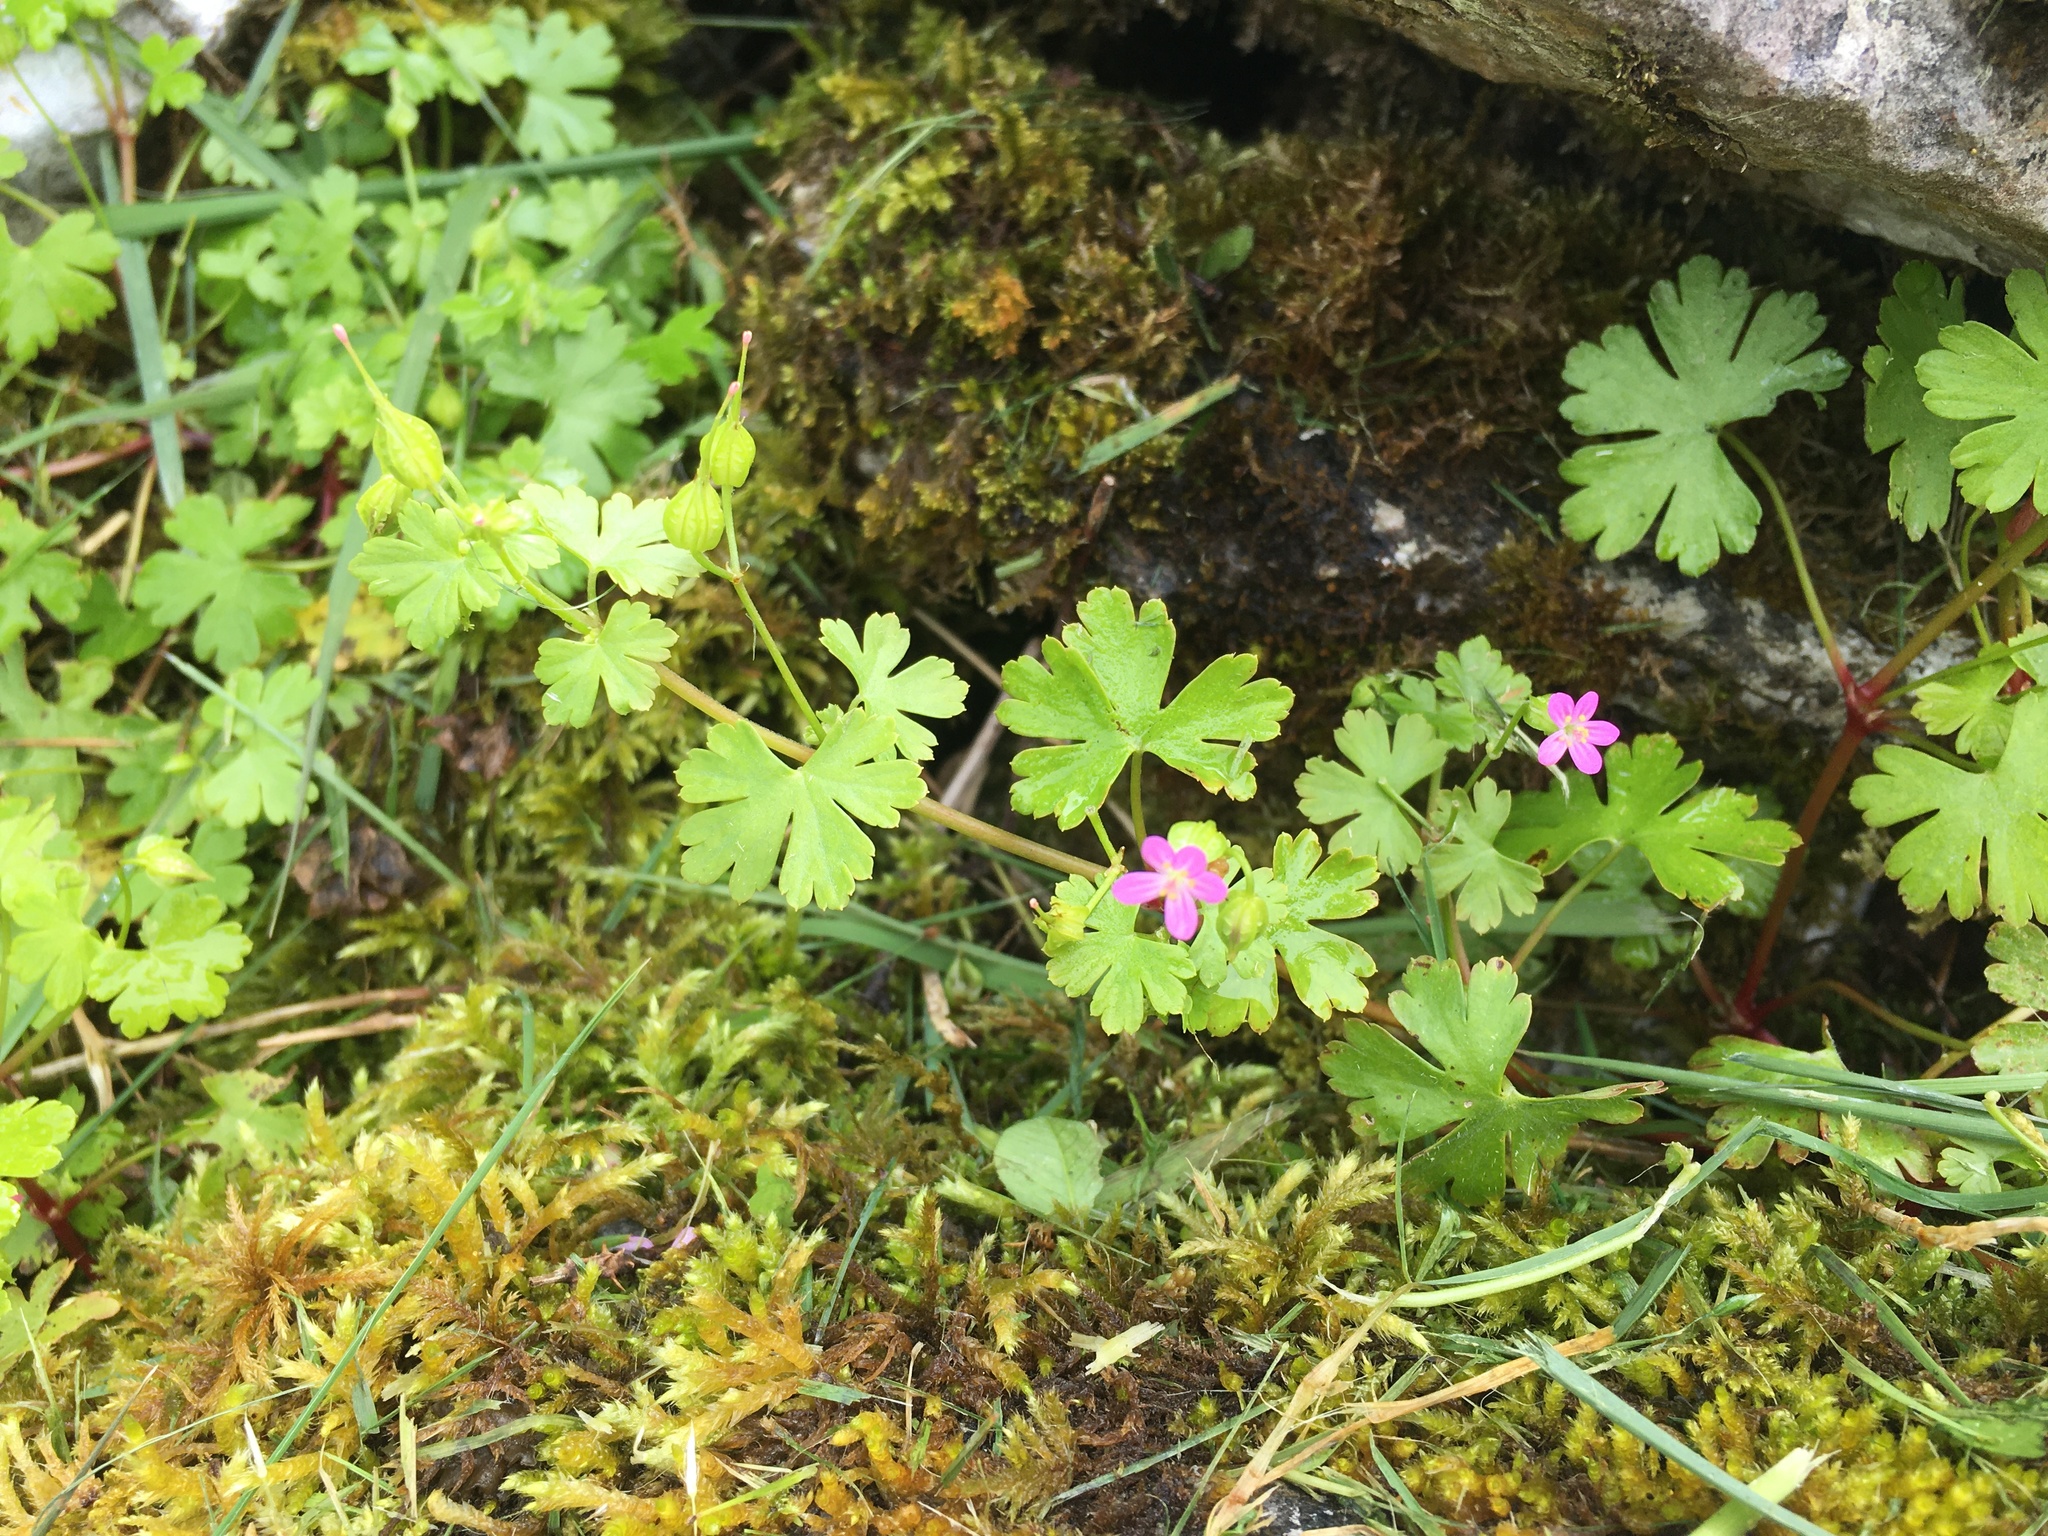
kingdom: Plantae
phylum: Tracheophyta
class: Magnoliopsida
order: Geraniales
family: Geraniaceae
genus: Geranium
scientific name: Geranium lucidum
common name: Shining crane's-bill
